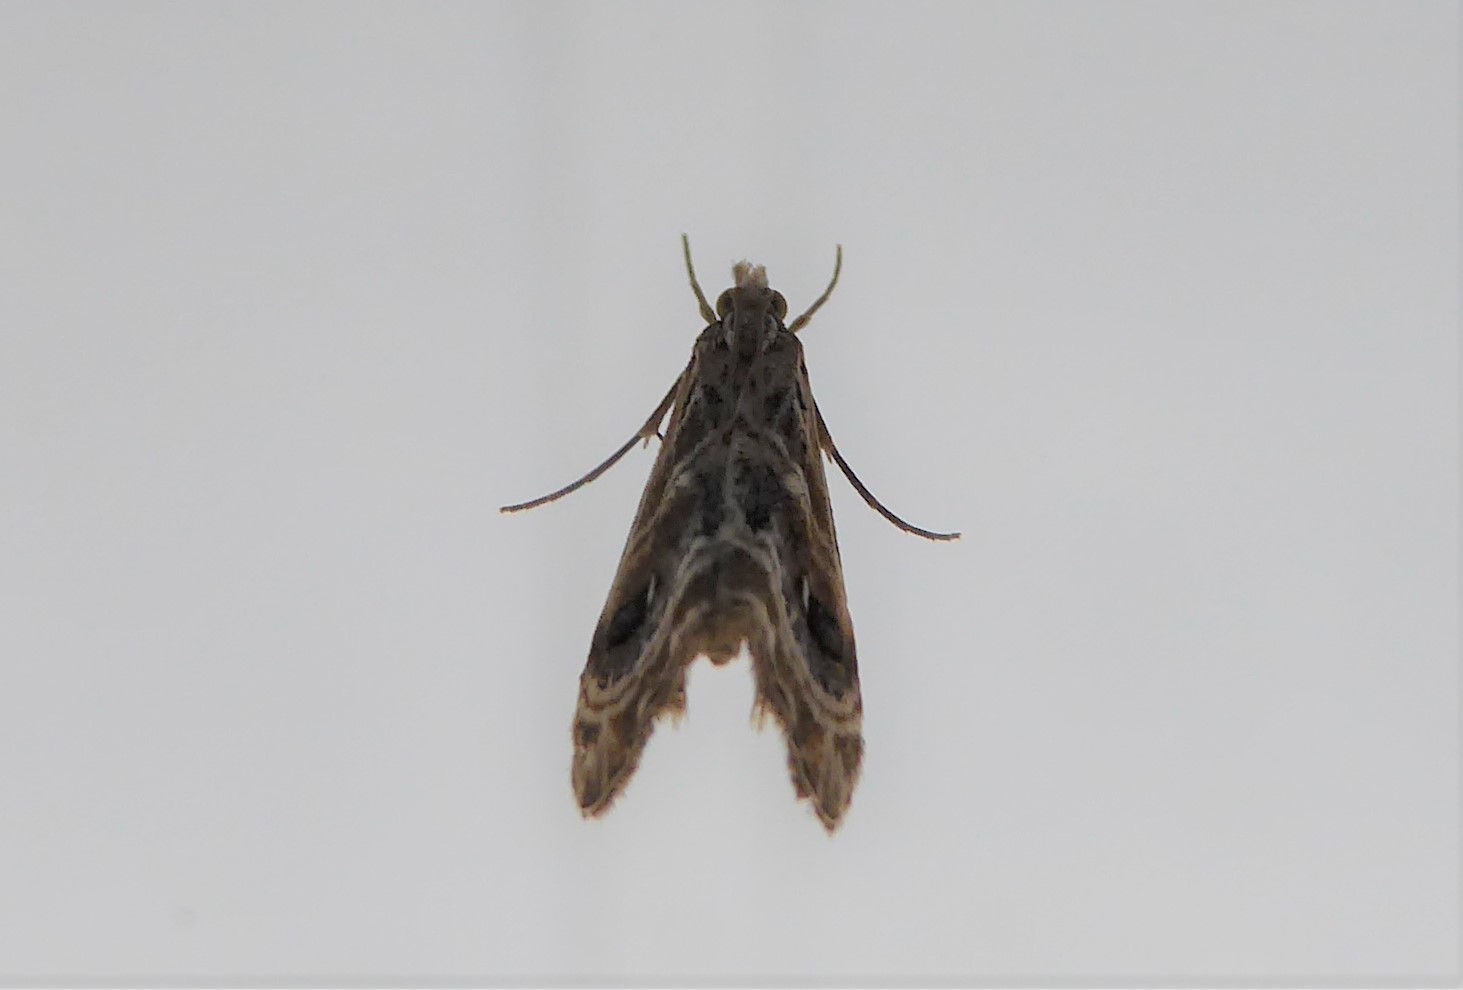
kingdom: Animalia
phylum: Arthropoda
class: Insecta
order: Lepidoptera
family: Crambidae
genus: Gadira
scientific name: Gadira acerella
